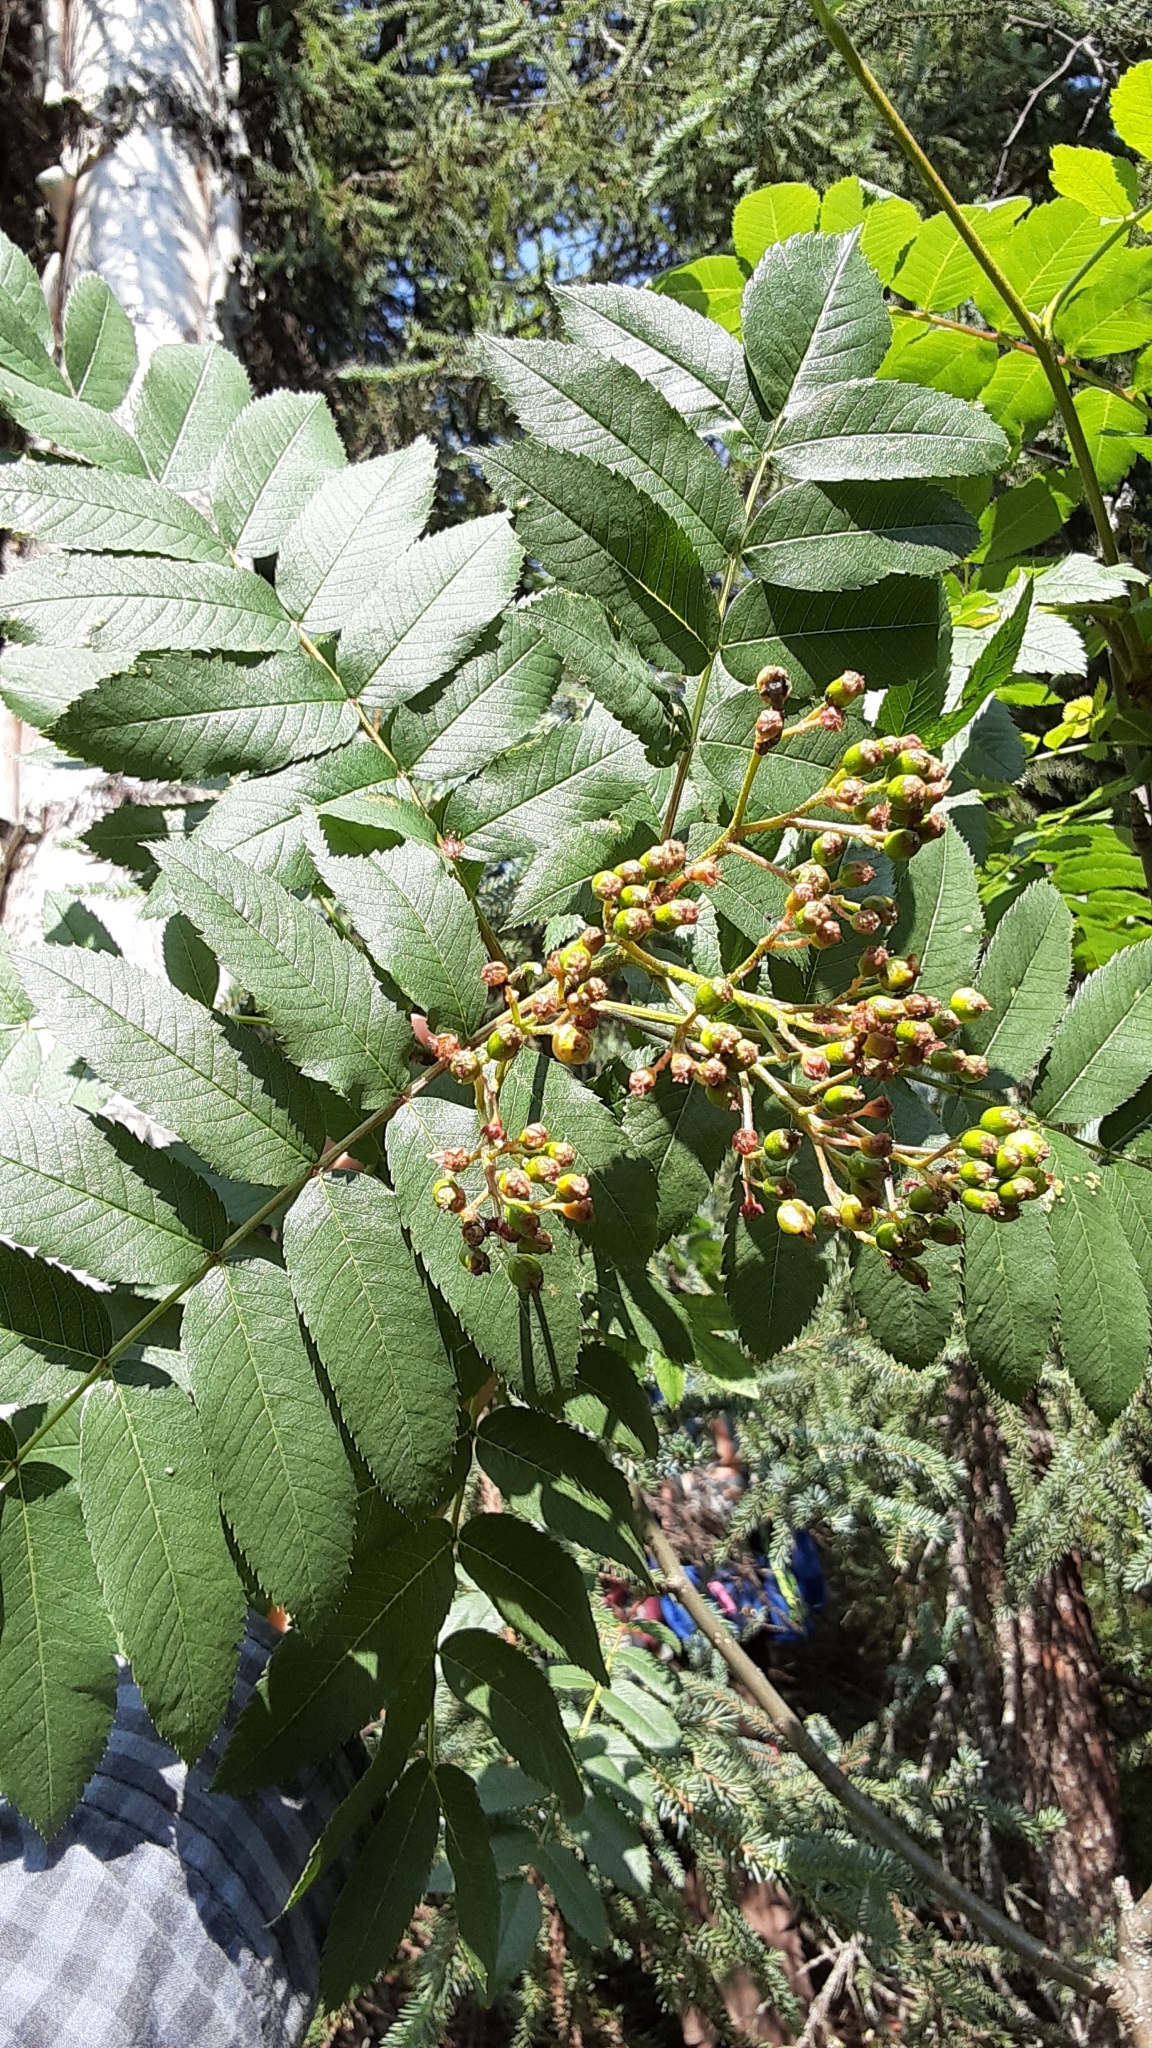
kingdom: Plantae
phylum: Tracheophyta
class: Magnoliopsida
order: Rosales
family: Rosaceae
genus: Sorbus
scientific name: Sorbus scopulina
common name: Greene's mountain-ash
